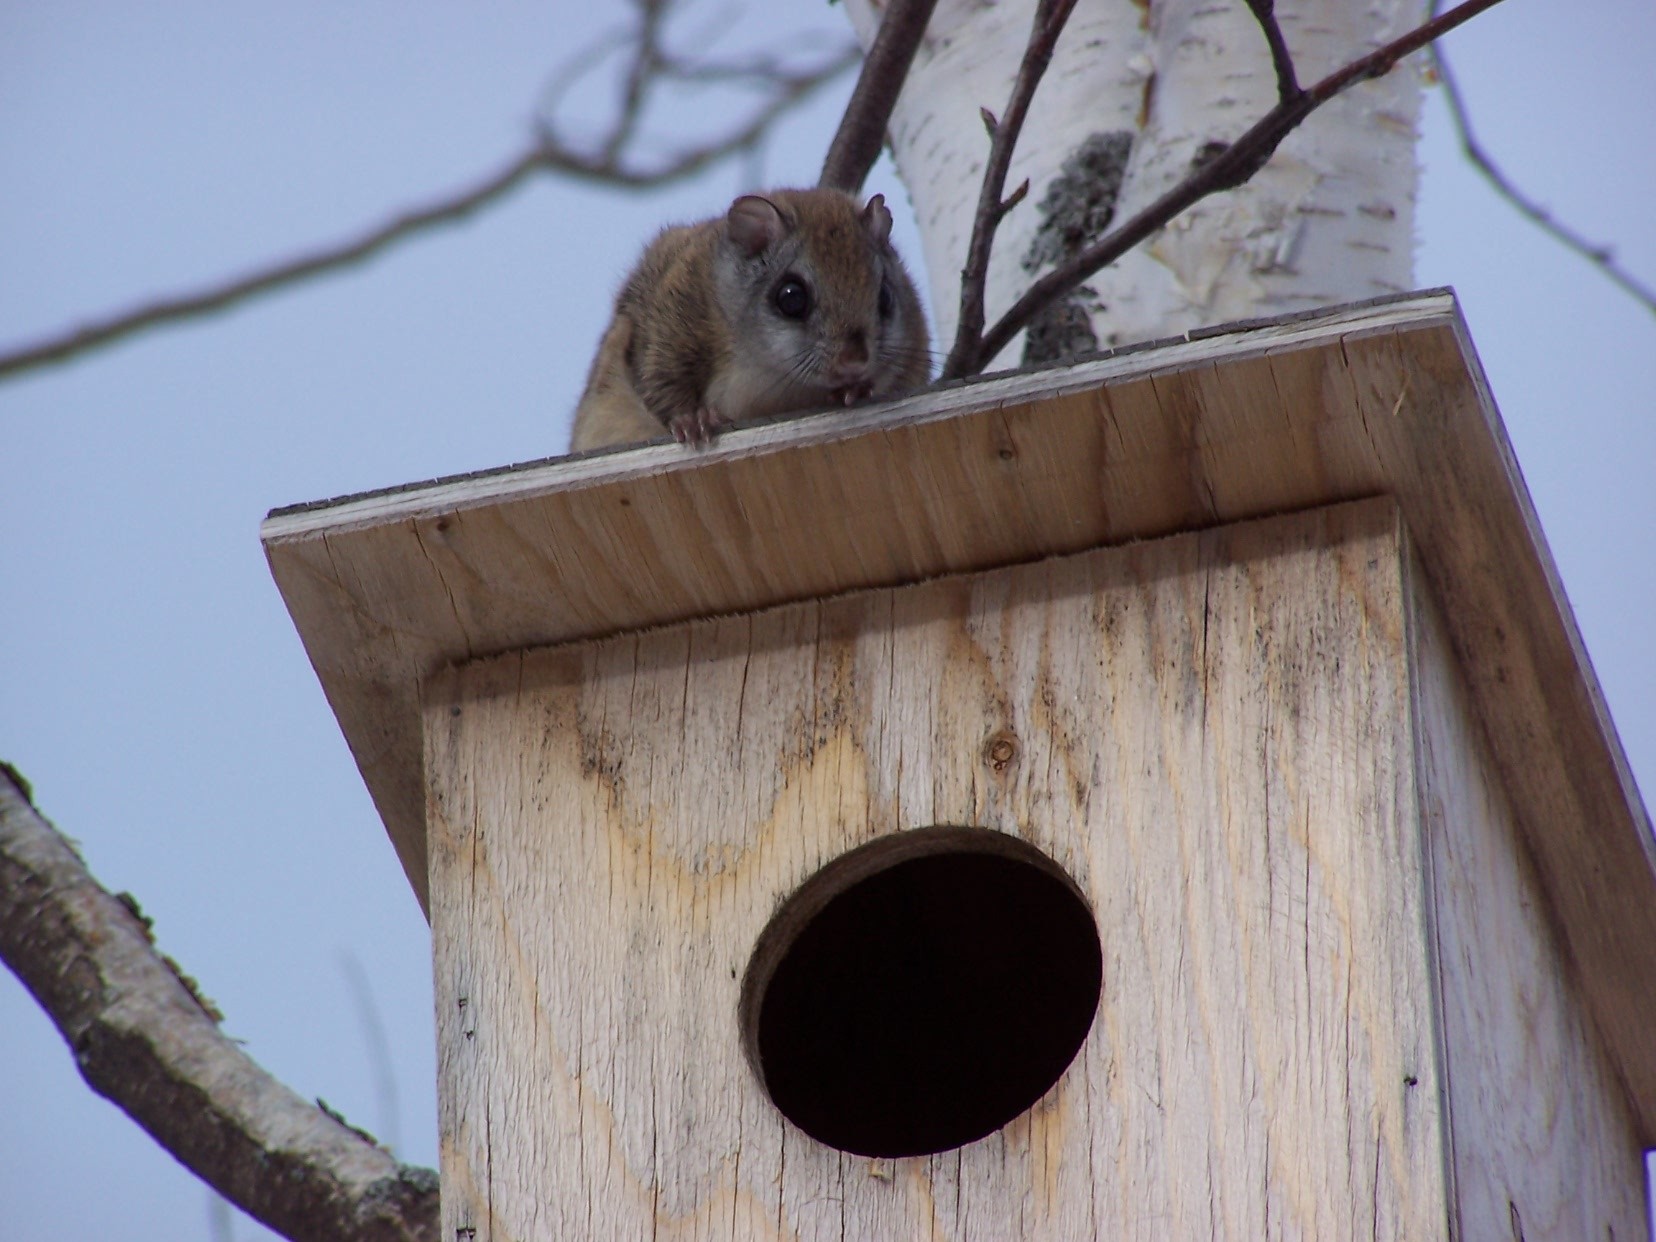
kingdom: Animalia
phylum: Chordata
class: Mammalia
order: Rodentia
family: Sciuridae
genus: Glaucomys
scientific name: Glaucomys sabrinus
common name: Northern flying squirrel
